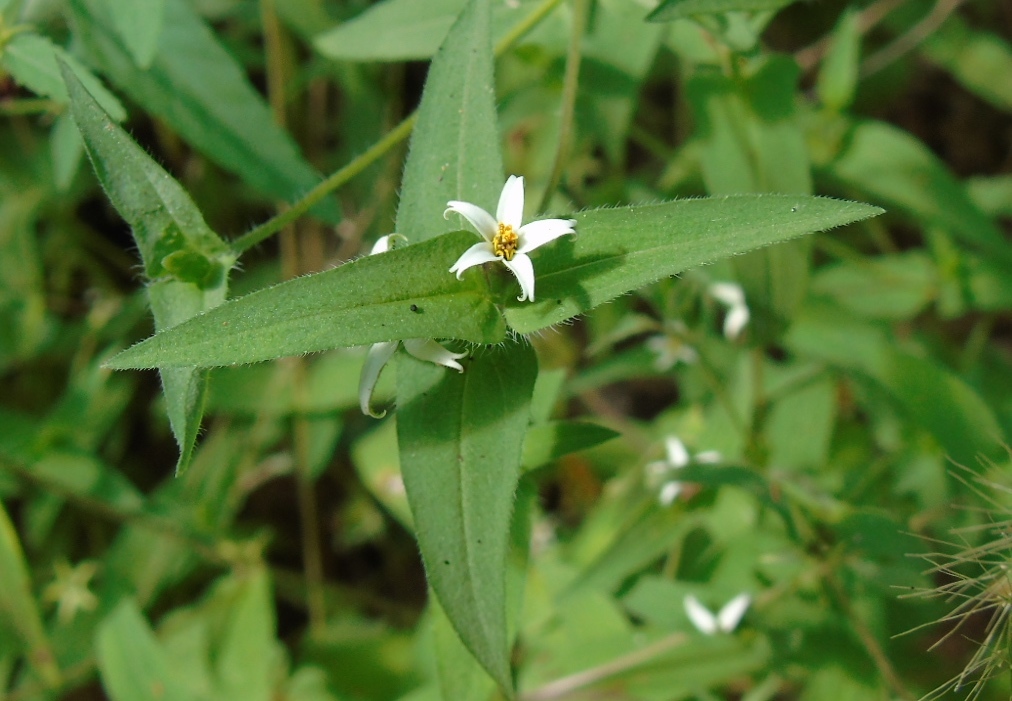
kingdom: Plantae
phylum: Tracheophyta
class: Magnoliopsida
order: Asterales
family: Asteraceae
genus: Zinnia
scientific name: Zinnia zinnioides
